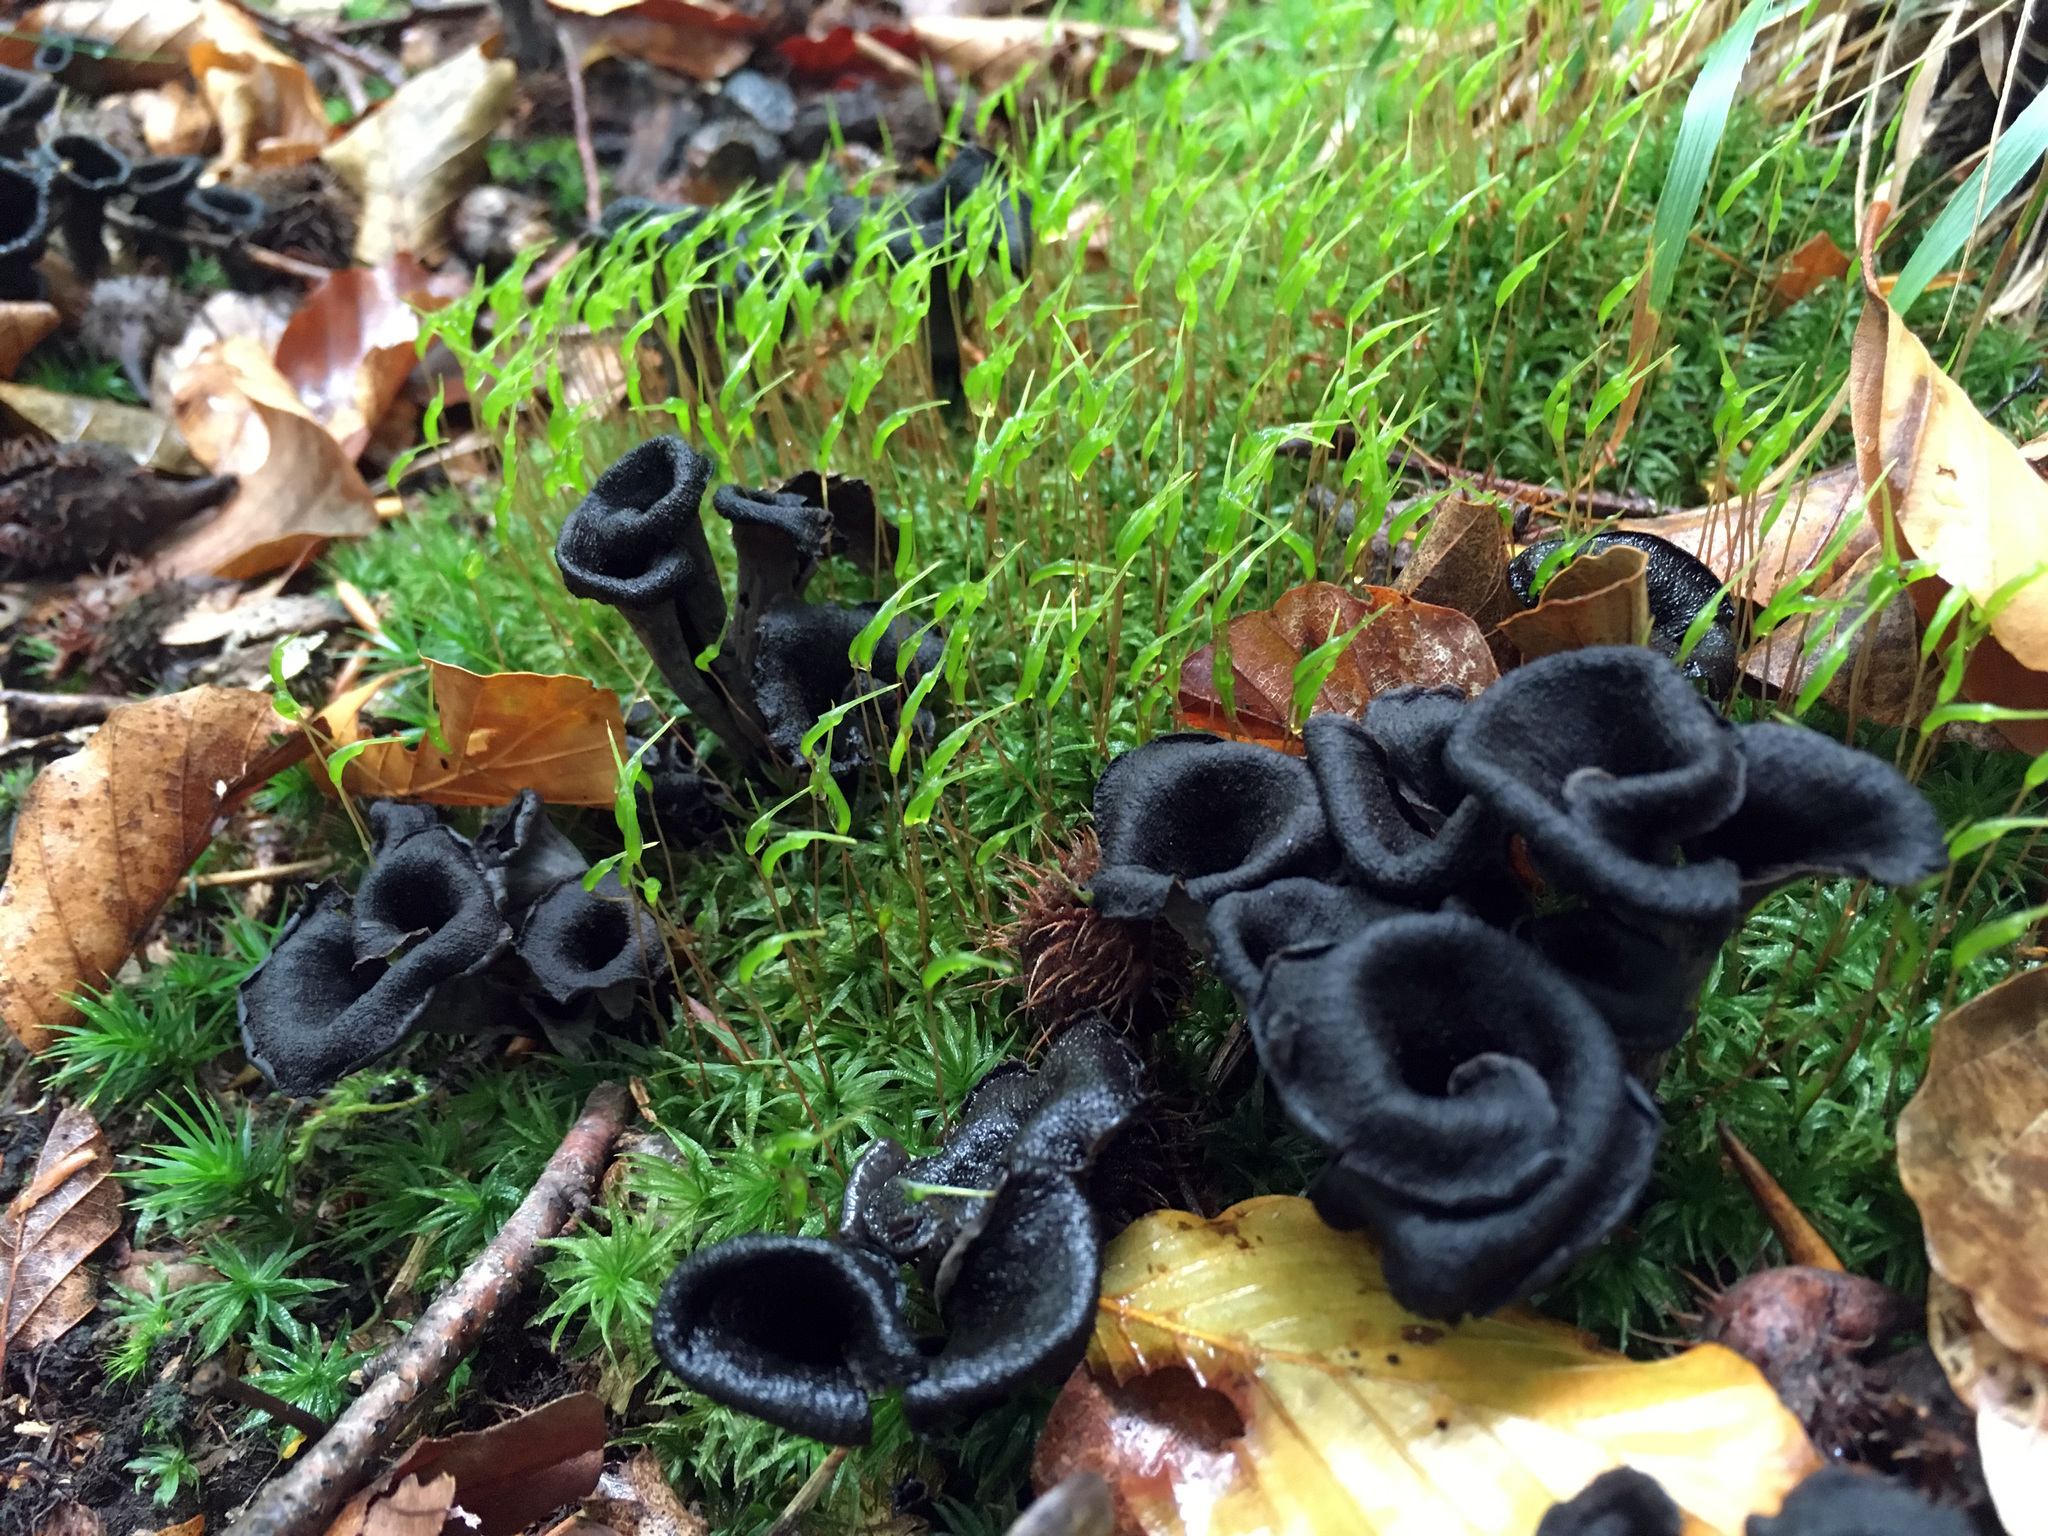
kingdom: Fungi
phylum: Basidiomycota
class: Agaricomycetes
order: Cantharellales
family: Hydnaceae
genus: Craterellus
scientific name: Craterellus cornucopioides
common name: Horn of plenty
